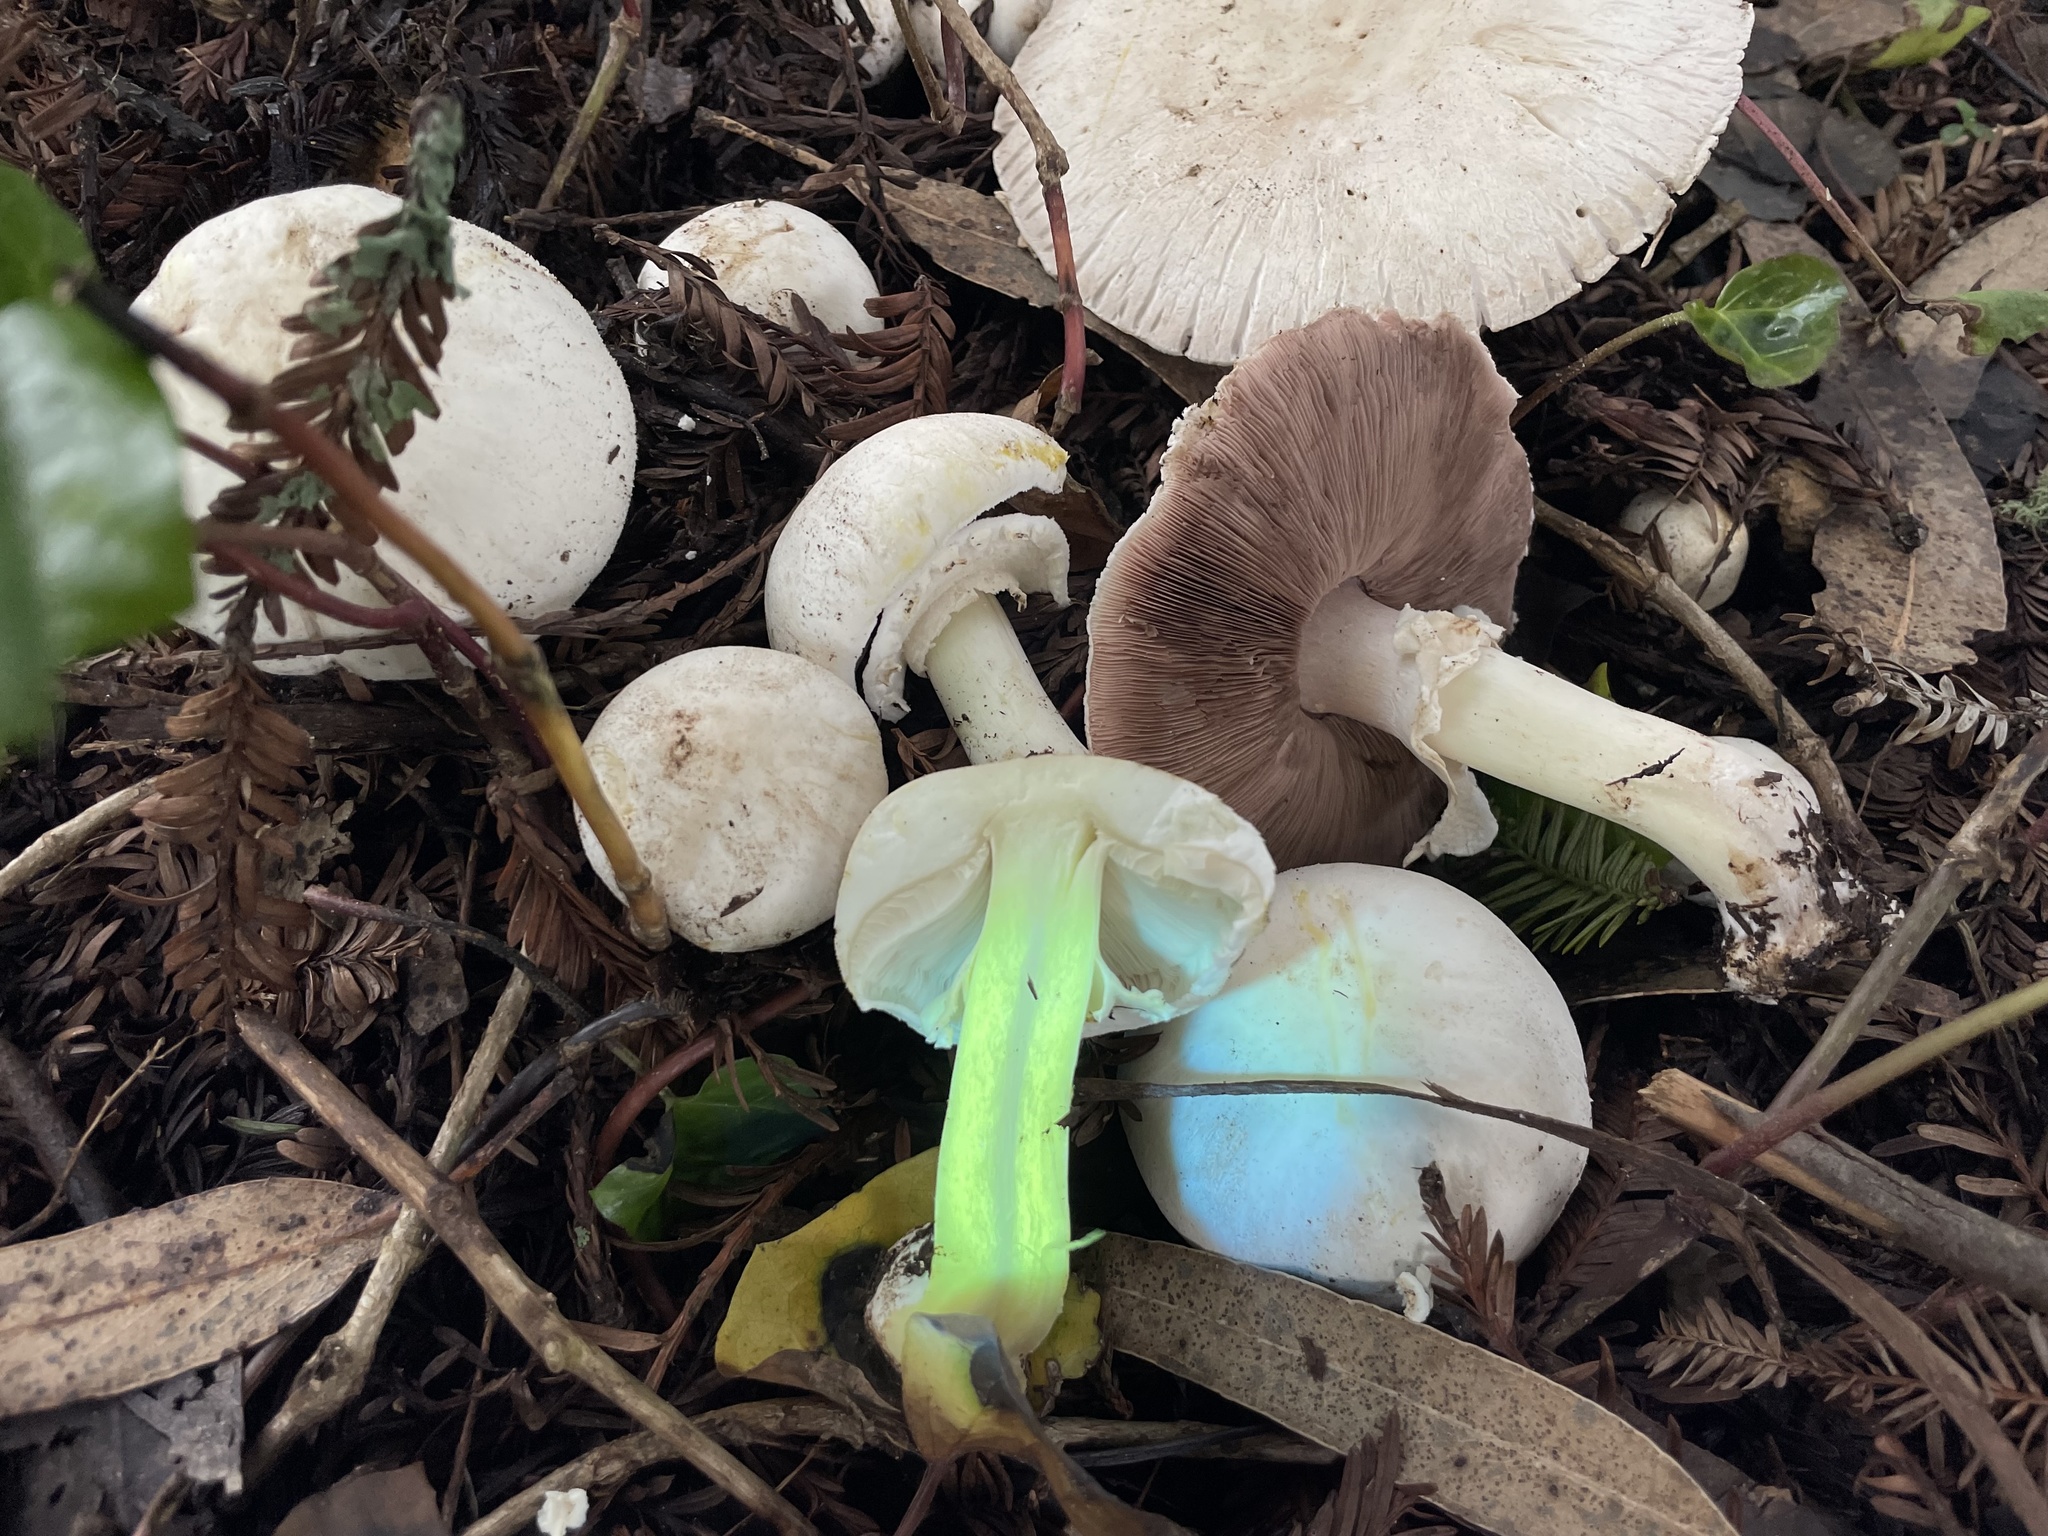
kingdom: Fungi
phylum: Basidiomycota
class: Agaricomycetes
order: Agaricales
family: Agaricaceae
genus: Agaricus
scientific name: Agaricus xanthodermus
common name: Yellow stainer
